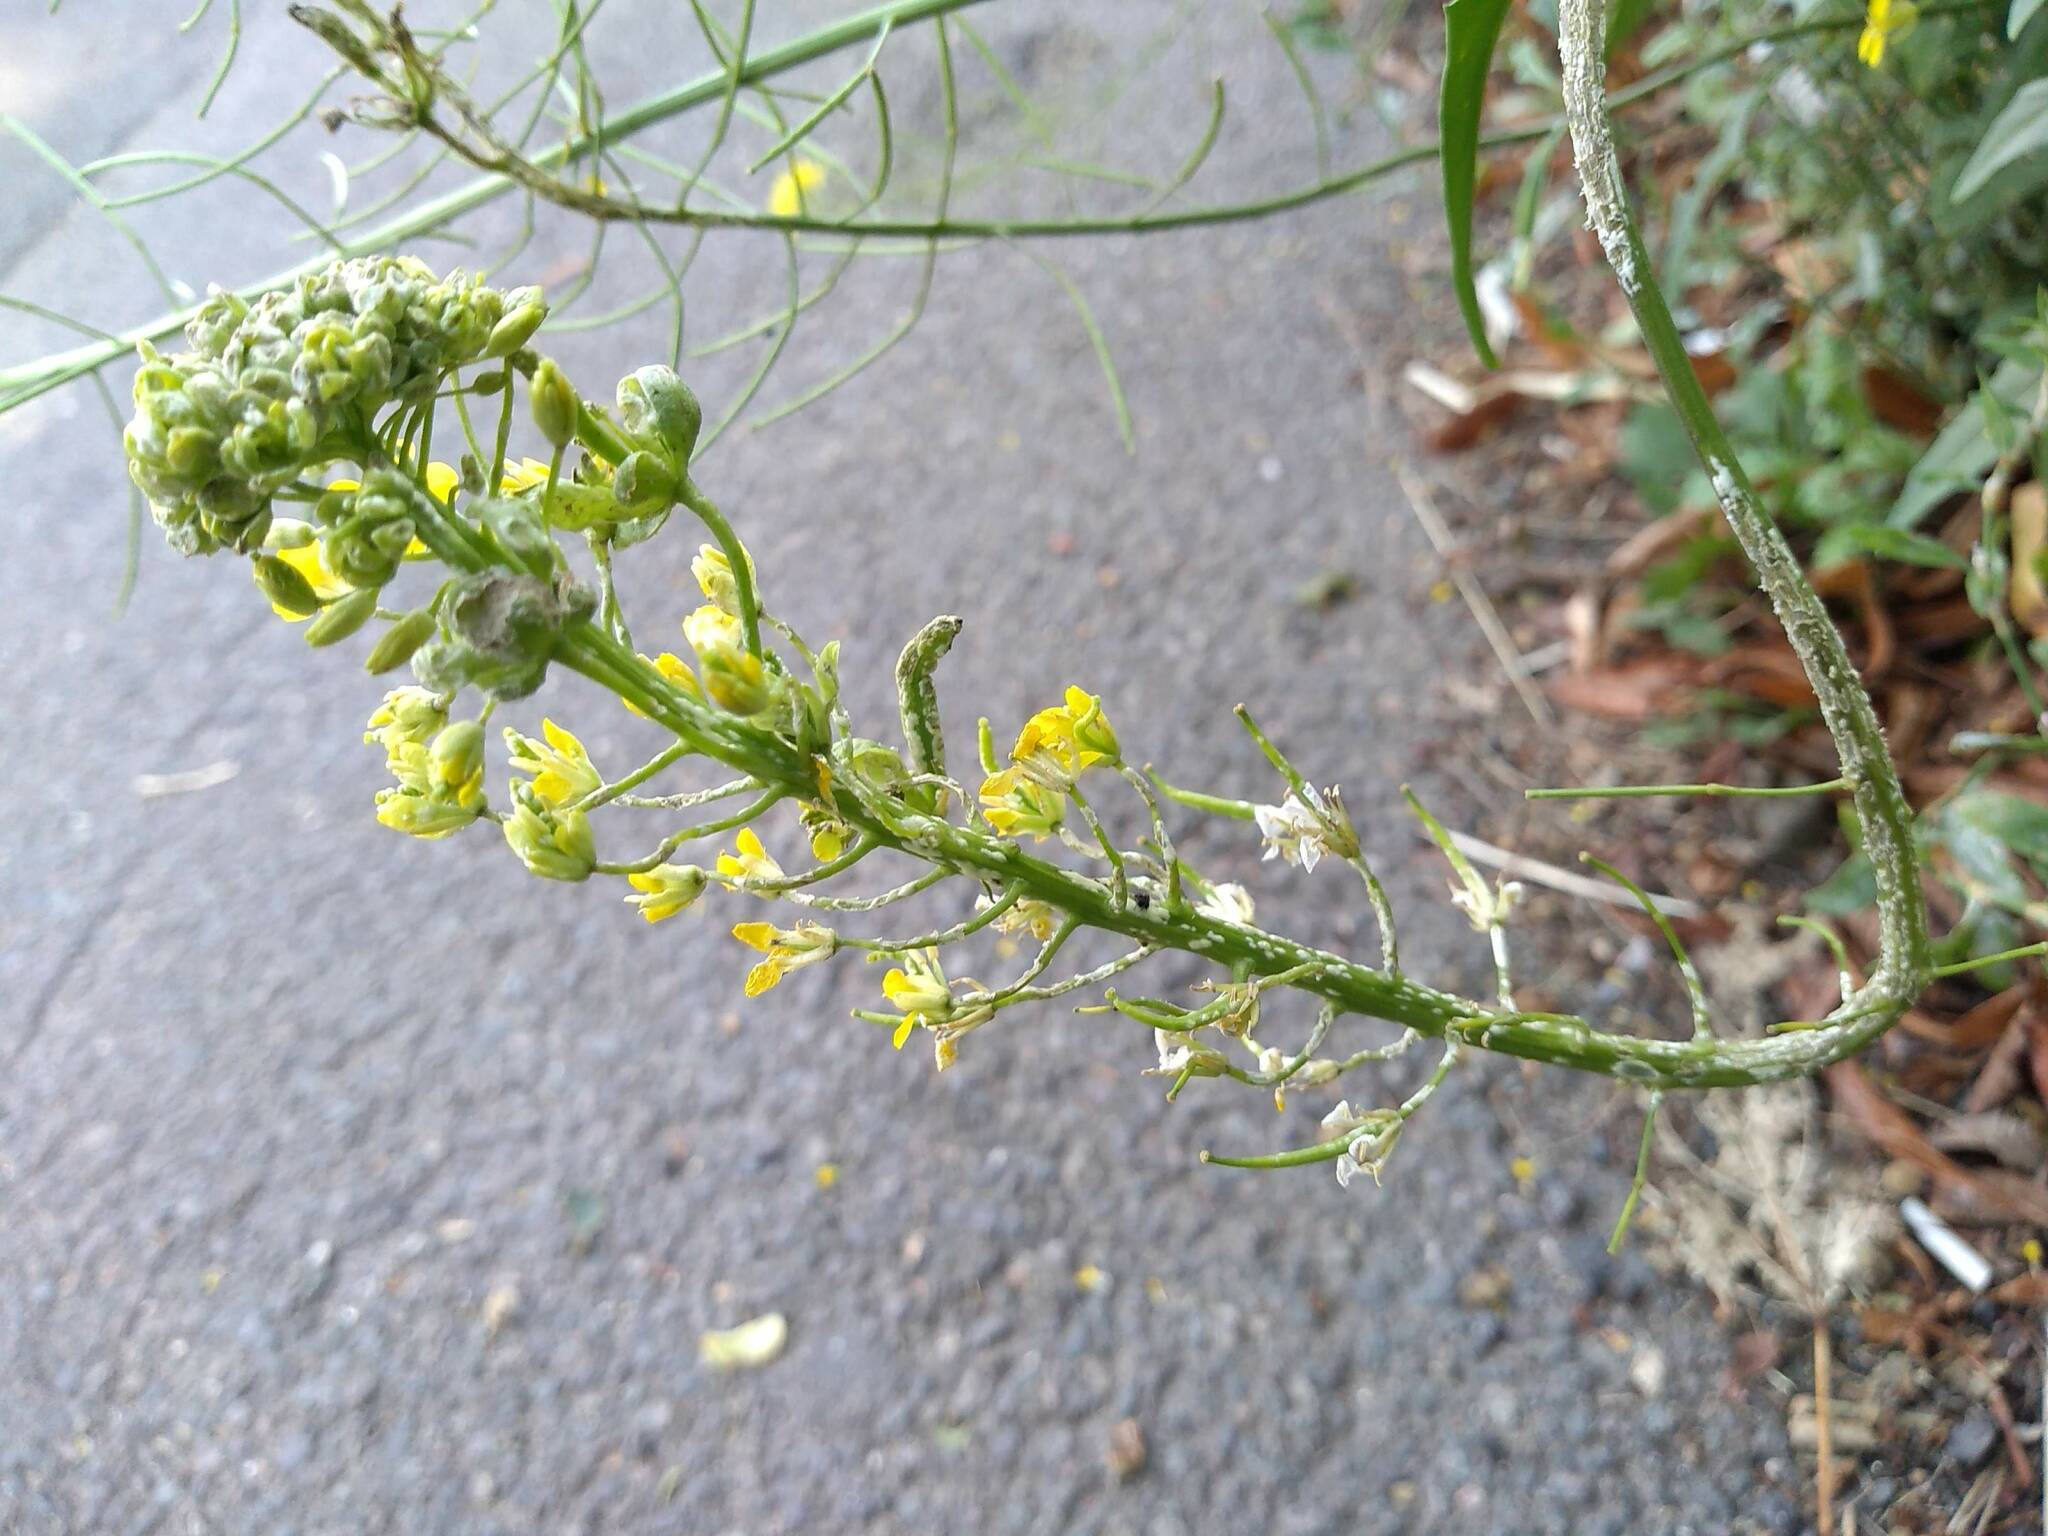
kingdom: Chromista
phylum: Oomycota
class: Peronosporea
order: Albuginales
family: Albuginaceae
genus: Albugo
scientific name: Albugo candida
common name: Crucifer white blister
